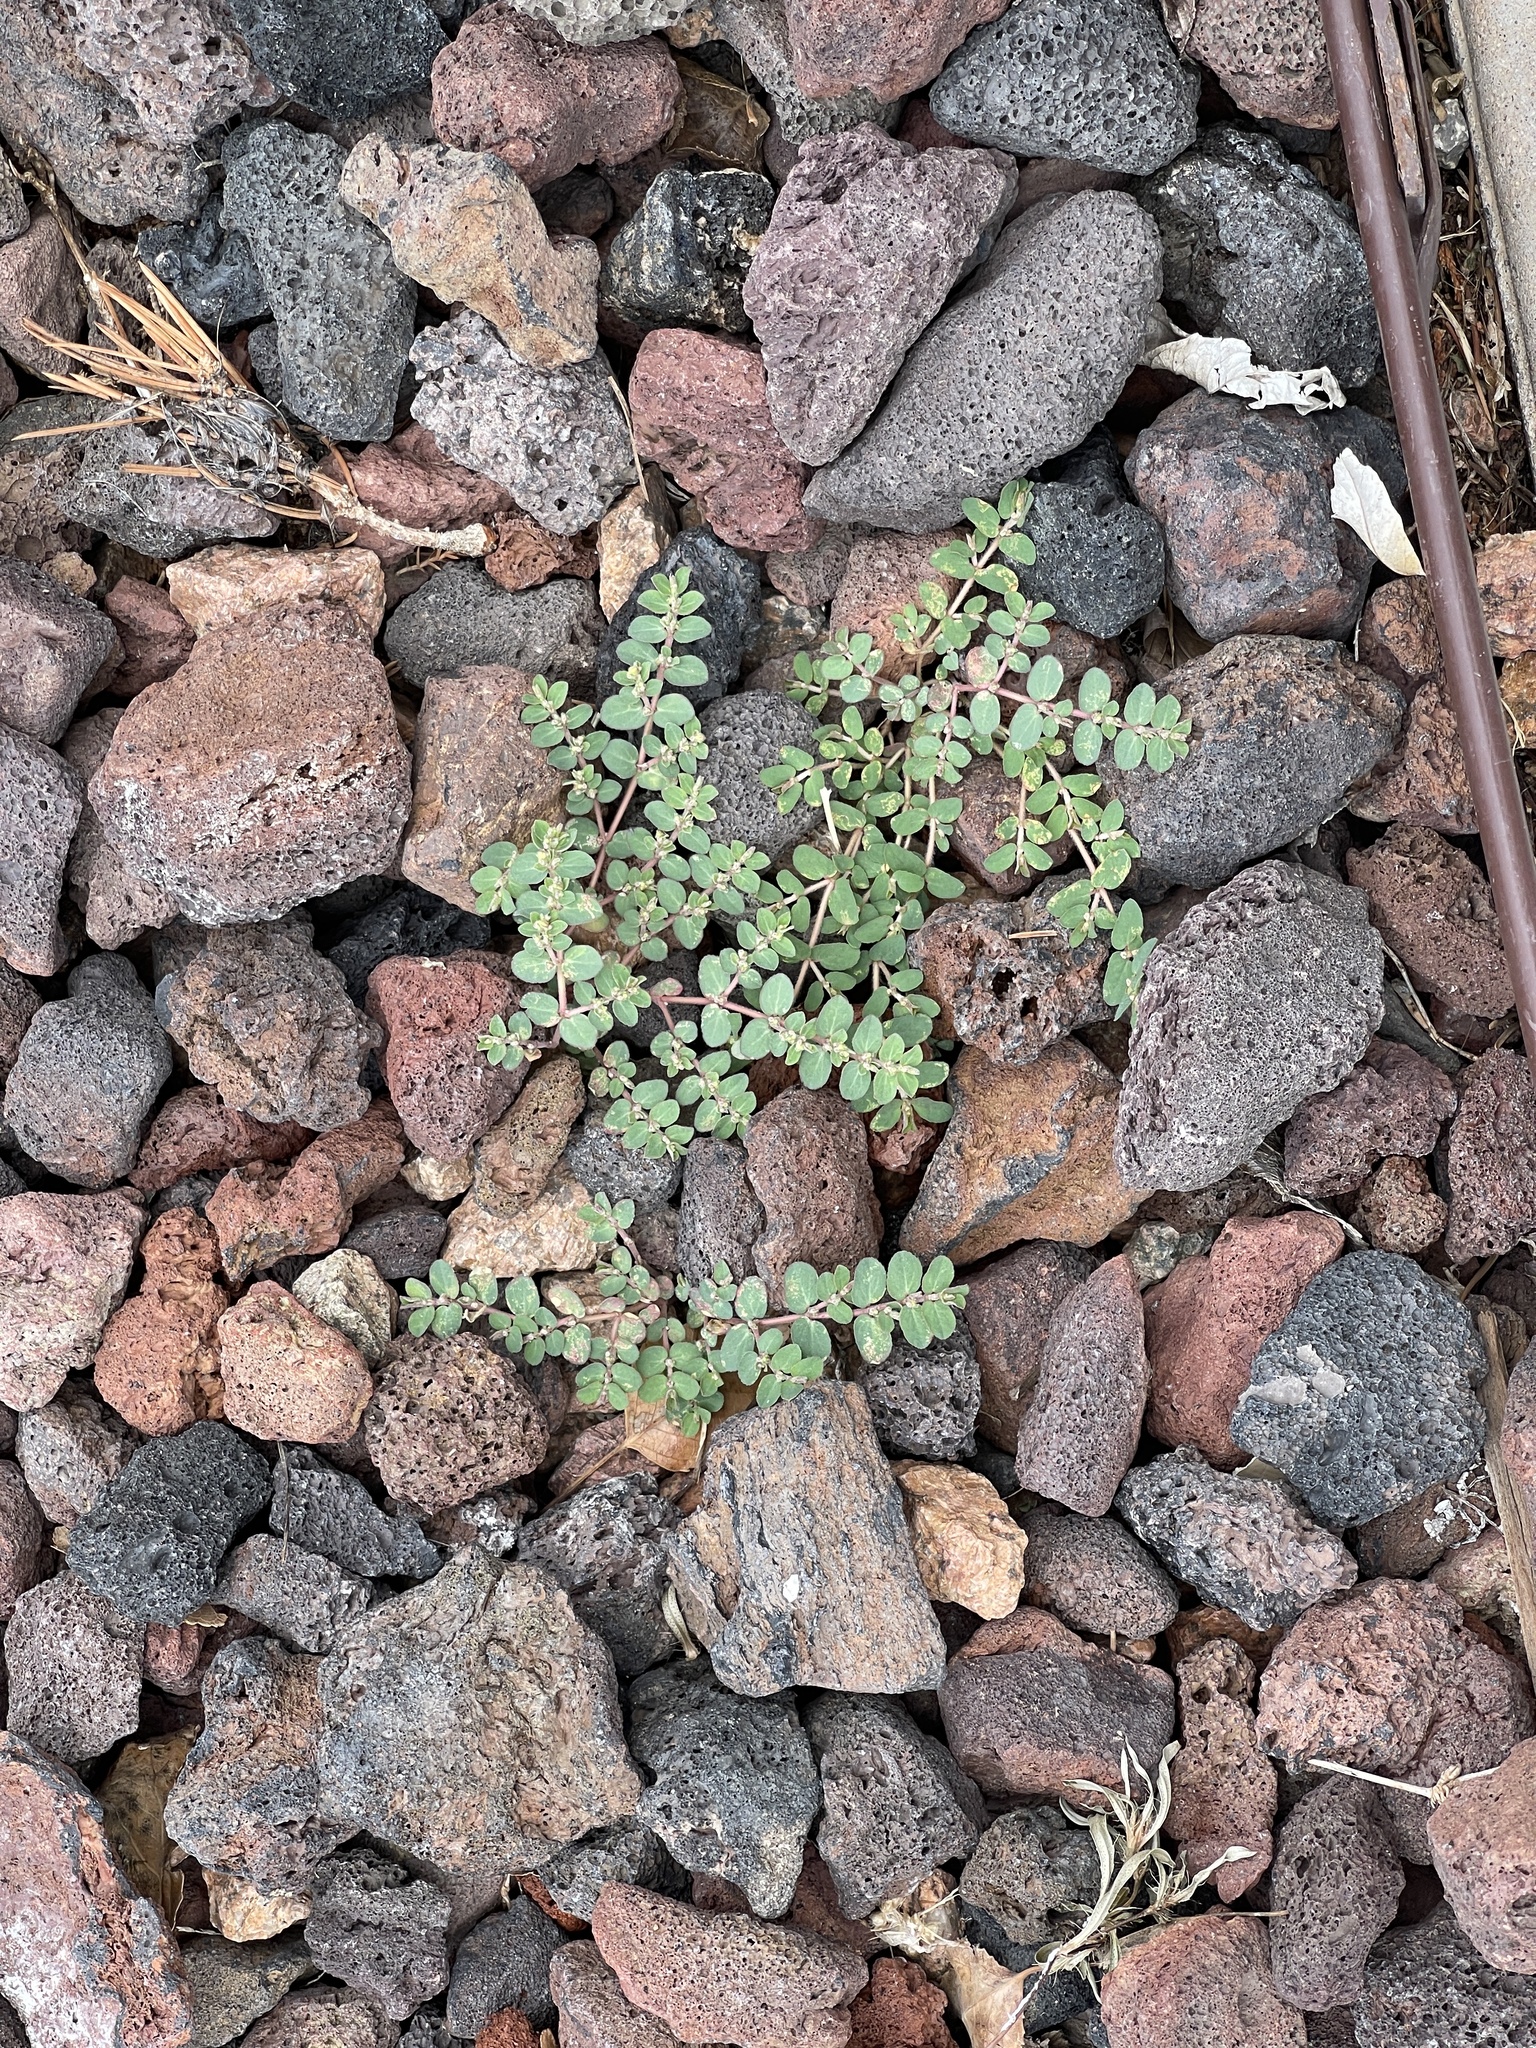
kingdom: Plantae
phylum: Tracheophyta
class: Magnoliopsida
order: Malpighiales
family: Euphorbiaceae
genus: Euphorbia
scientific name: Euphorbia prostrata
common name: Prostrate sandmat
